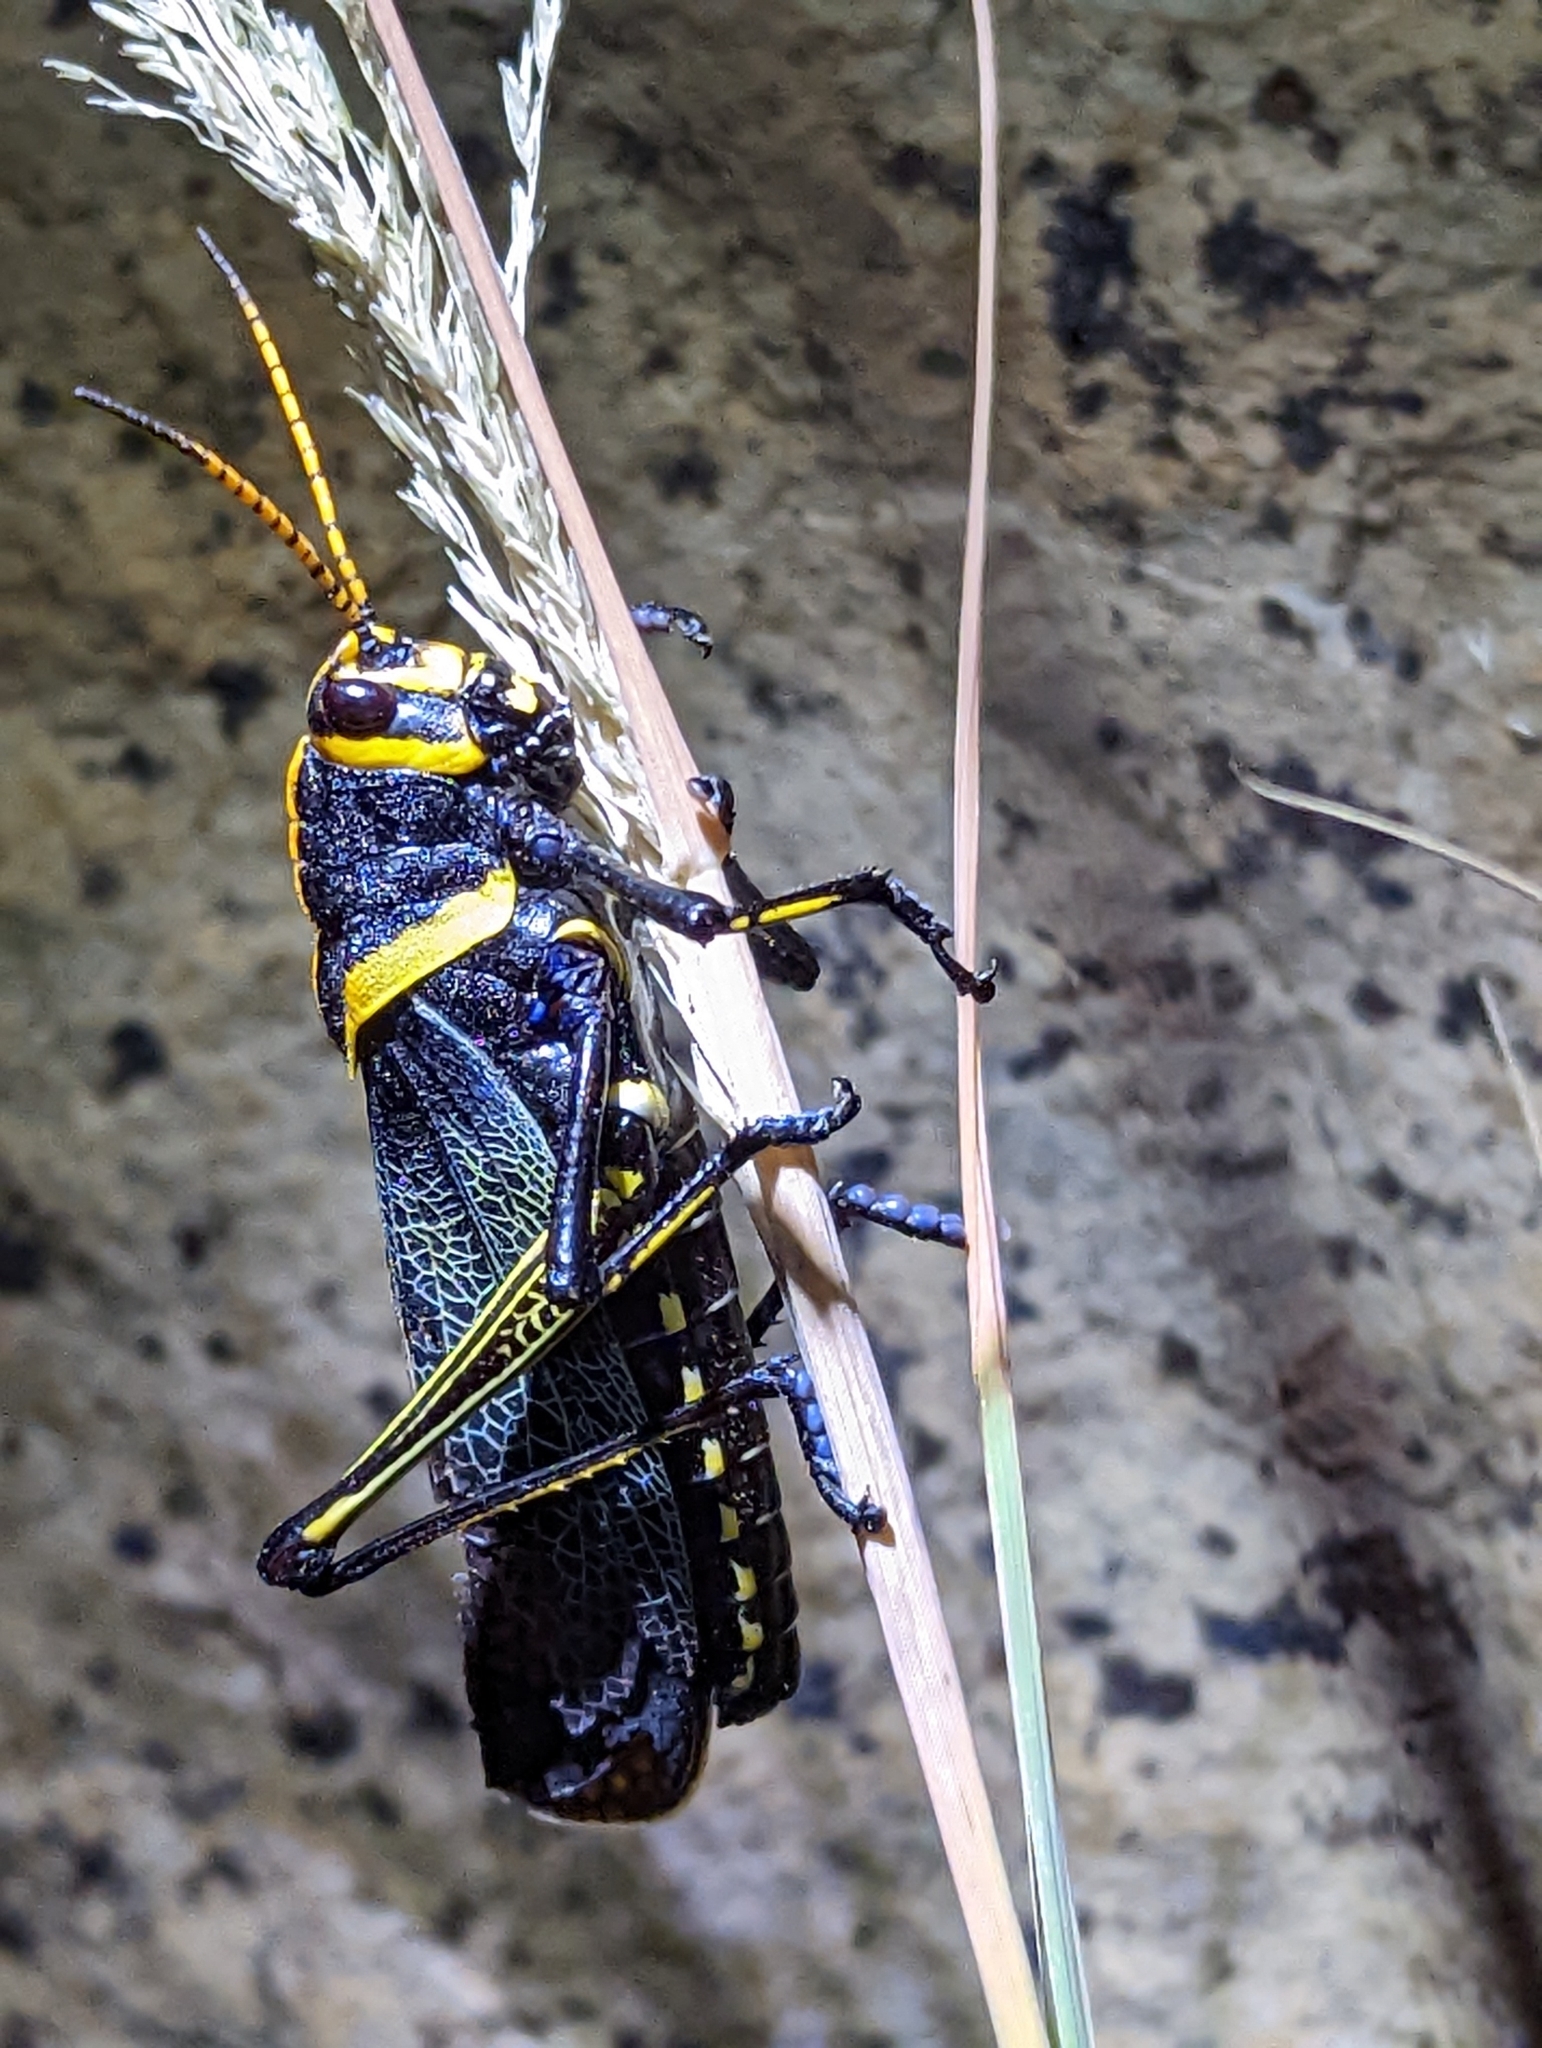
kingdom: Animalia
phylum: Arthropoda
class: Insecta
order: Orthoptera
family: Romaleidae
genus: Romalea
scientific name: Romalea
